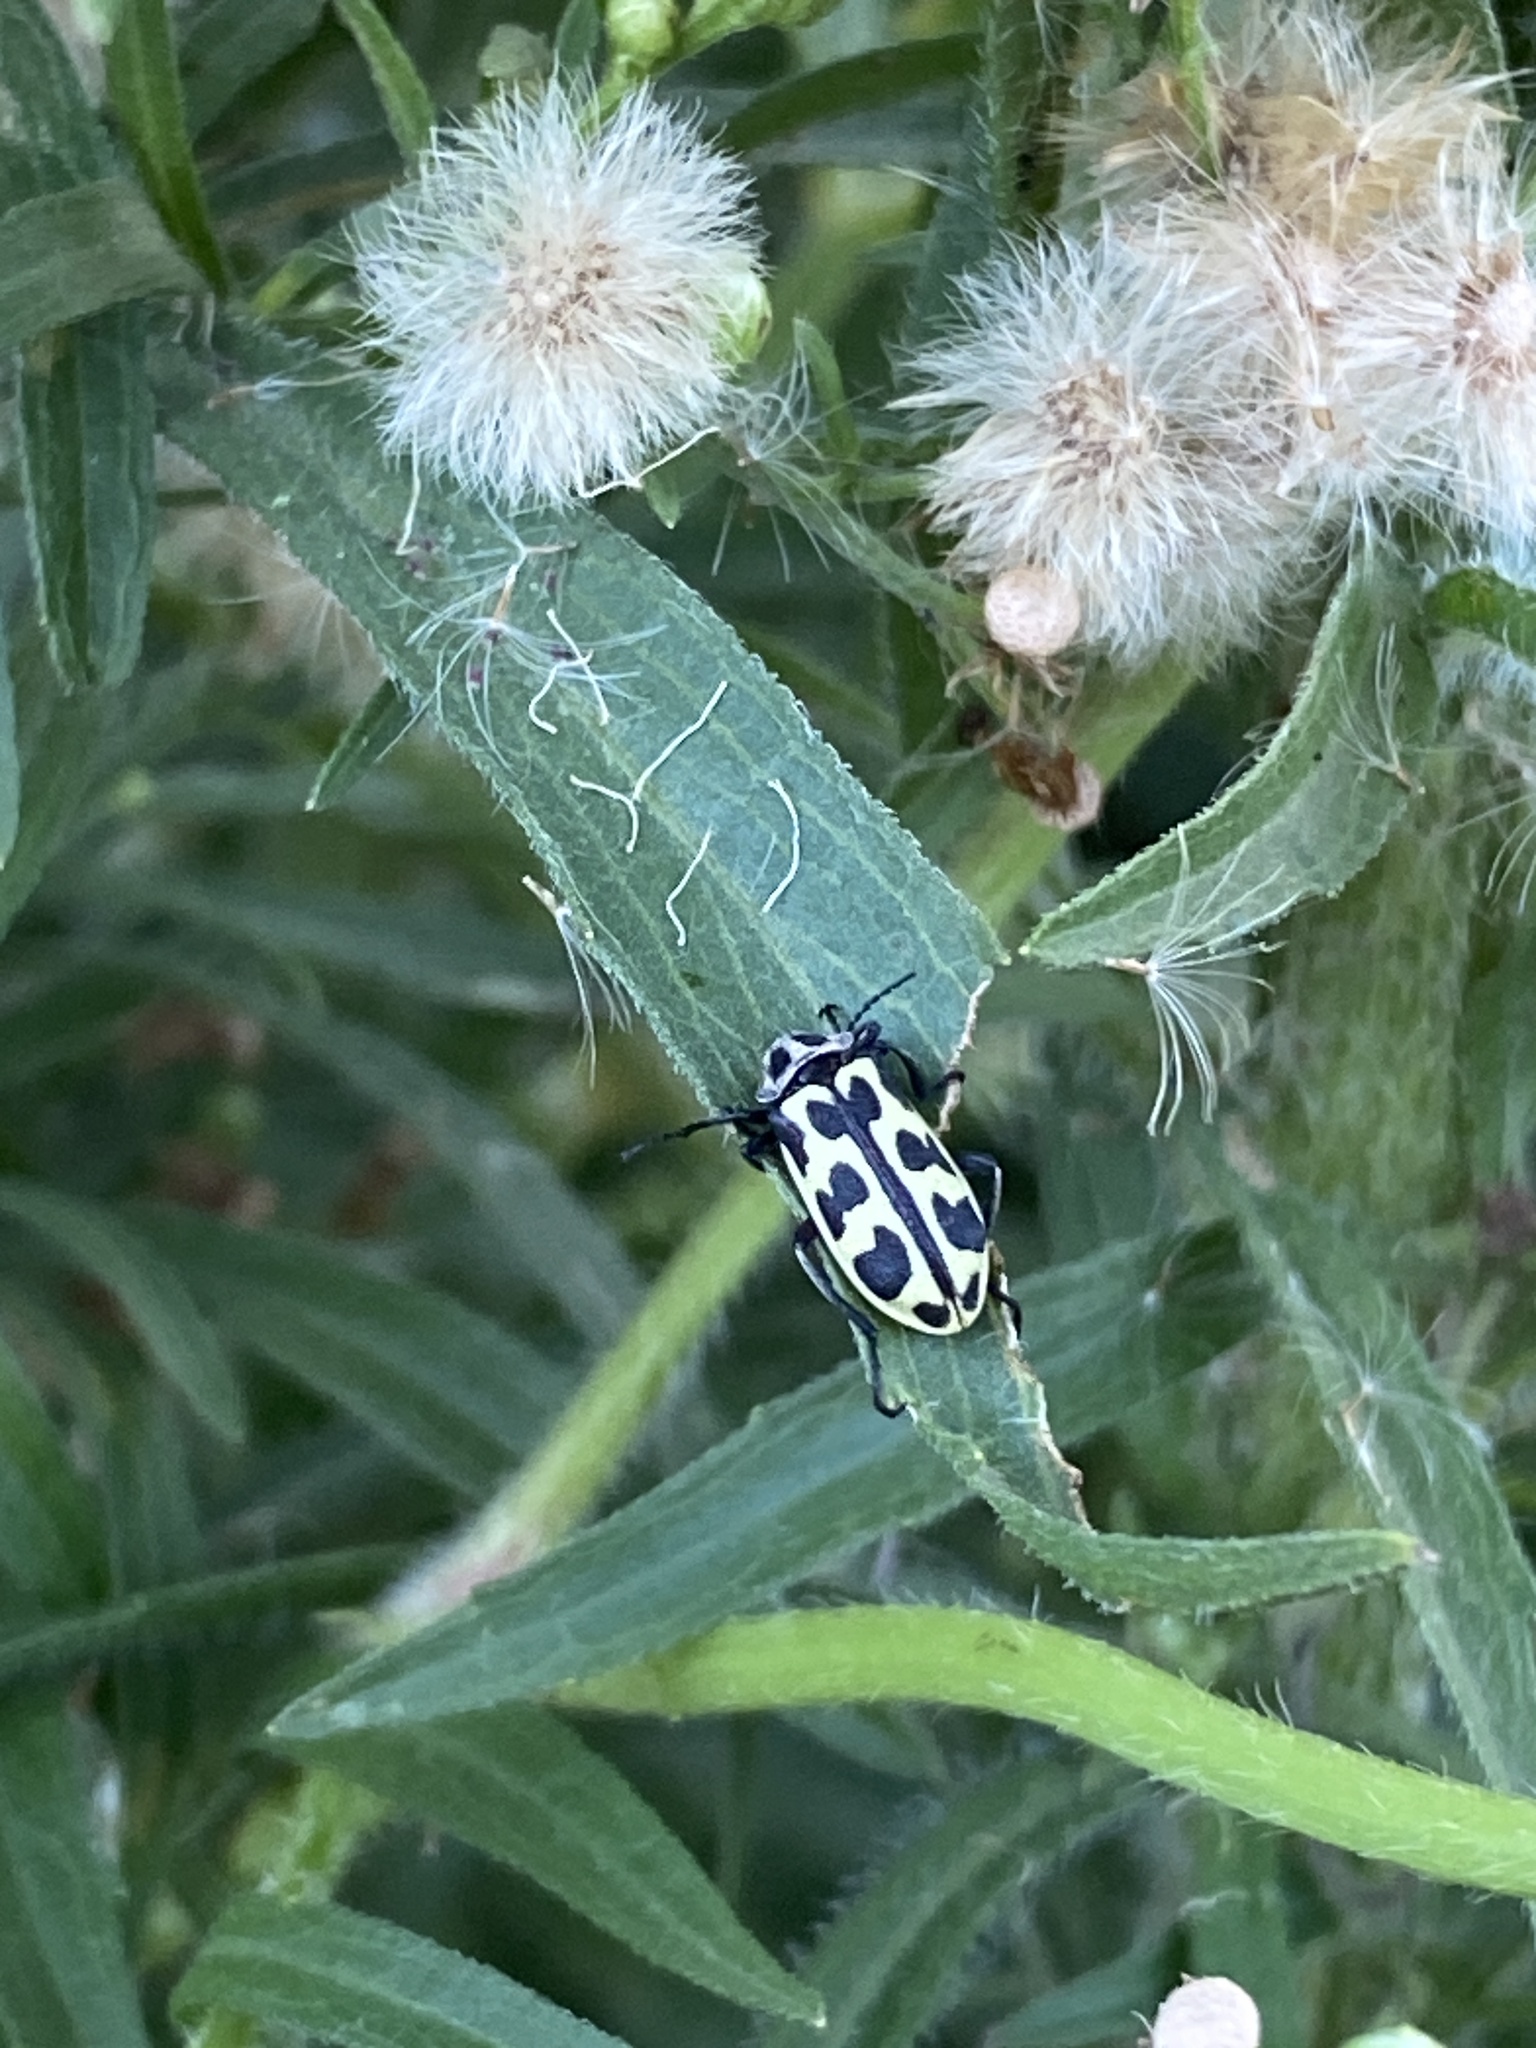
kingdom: Animalia
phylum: Arthropoda
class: Insecta
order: Coleoptera
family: Melyridae
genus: Astylus
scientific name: Astylus atromaculatus
